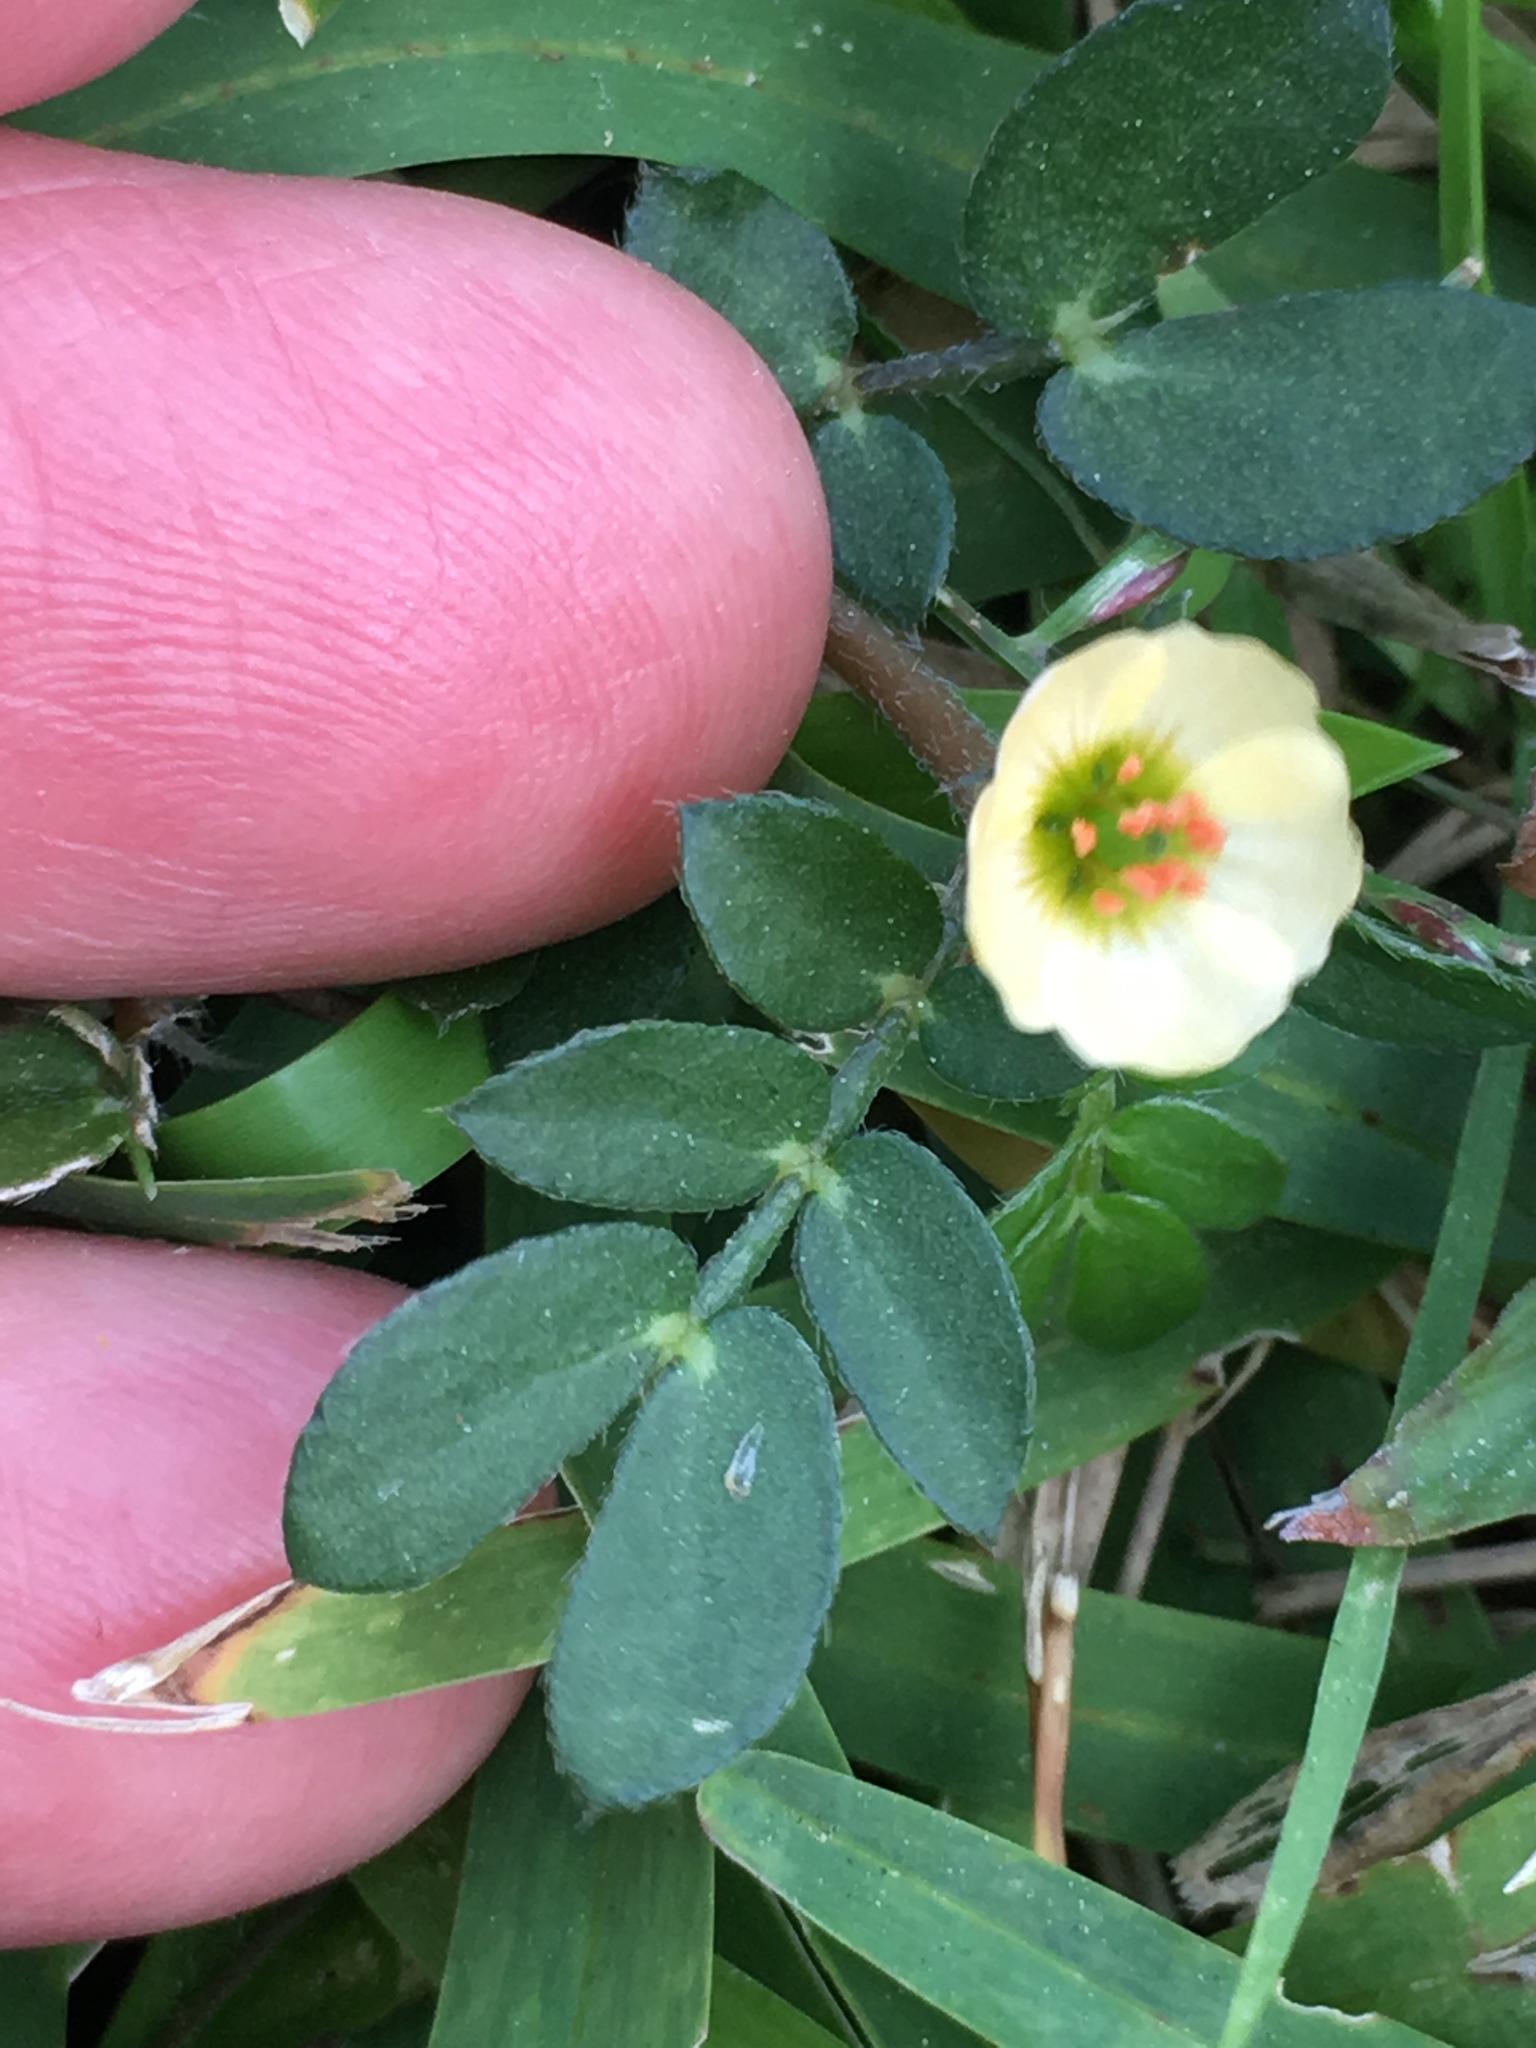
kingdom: Plantae
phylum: Tracheophyta
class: Magnoliopsida
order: Zygophyllales
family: Zygophyllaceae
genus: Kallstroemia
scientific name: Kallstroemia maxima
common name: Big caltropa
